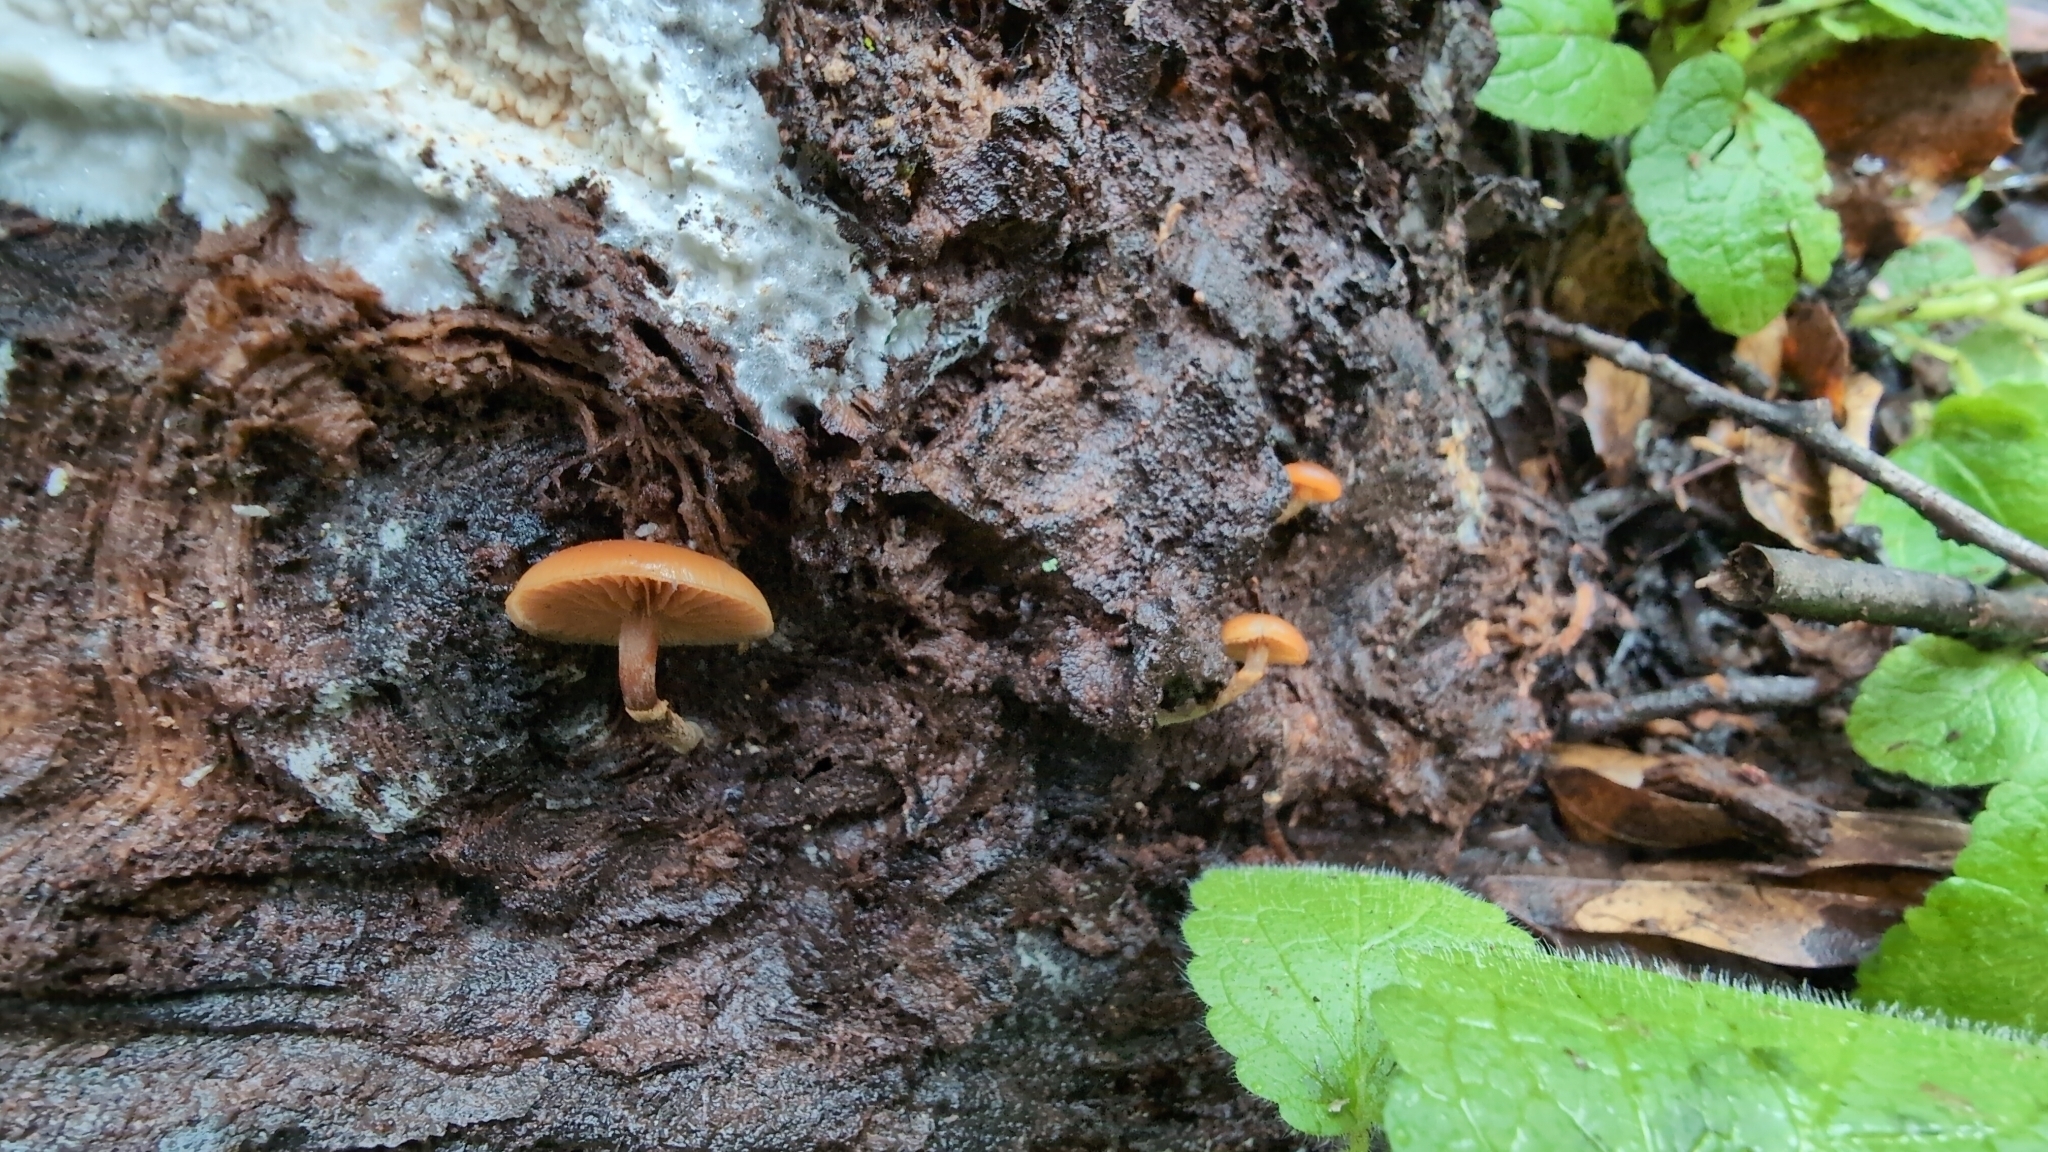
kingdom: Fungi
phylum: Basidiomycota
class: Agaricomycetes
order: Agaricales
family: Hymenogastraceae
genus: Galerina
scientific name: Galerina marginata
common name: Funeral bell
